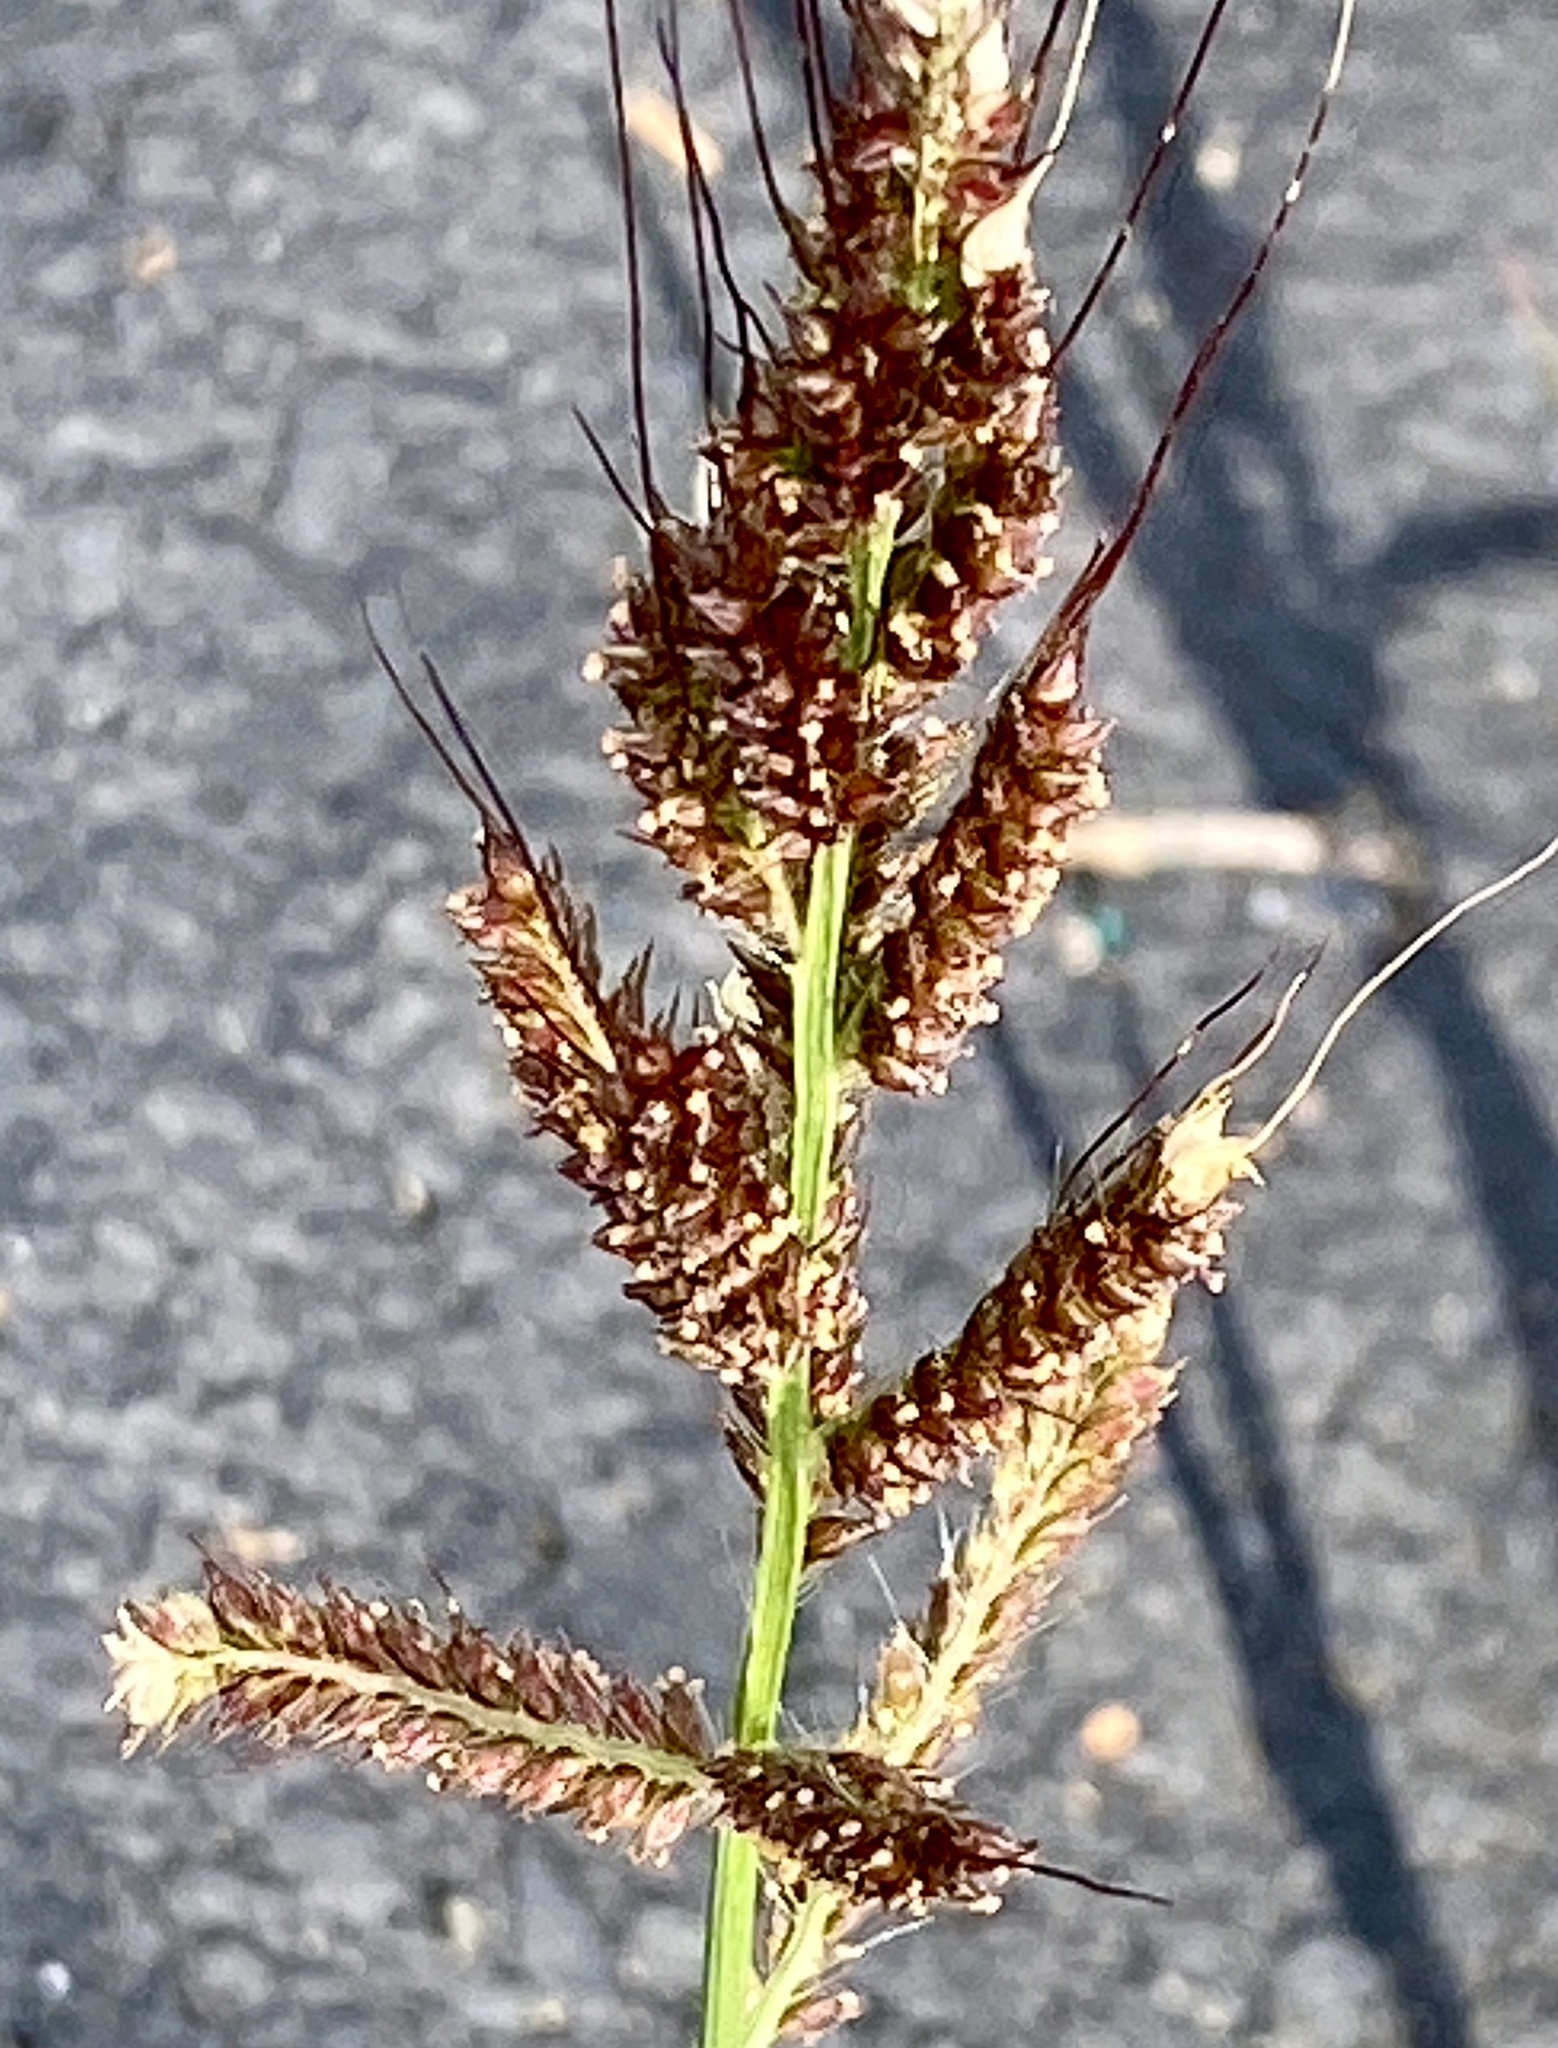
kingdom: Plantae
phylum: Tracheophyta
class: Liliopsida
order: Poales
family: Poaceae
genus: Echinochloa
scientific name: Echinochloa crus-galli
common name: Cockspur
